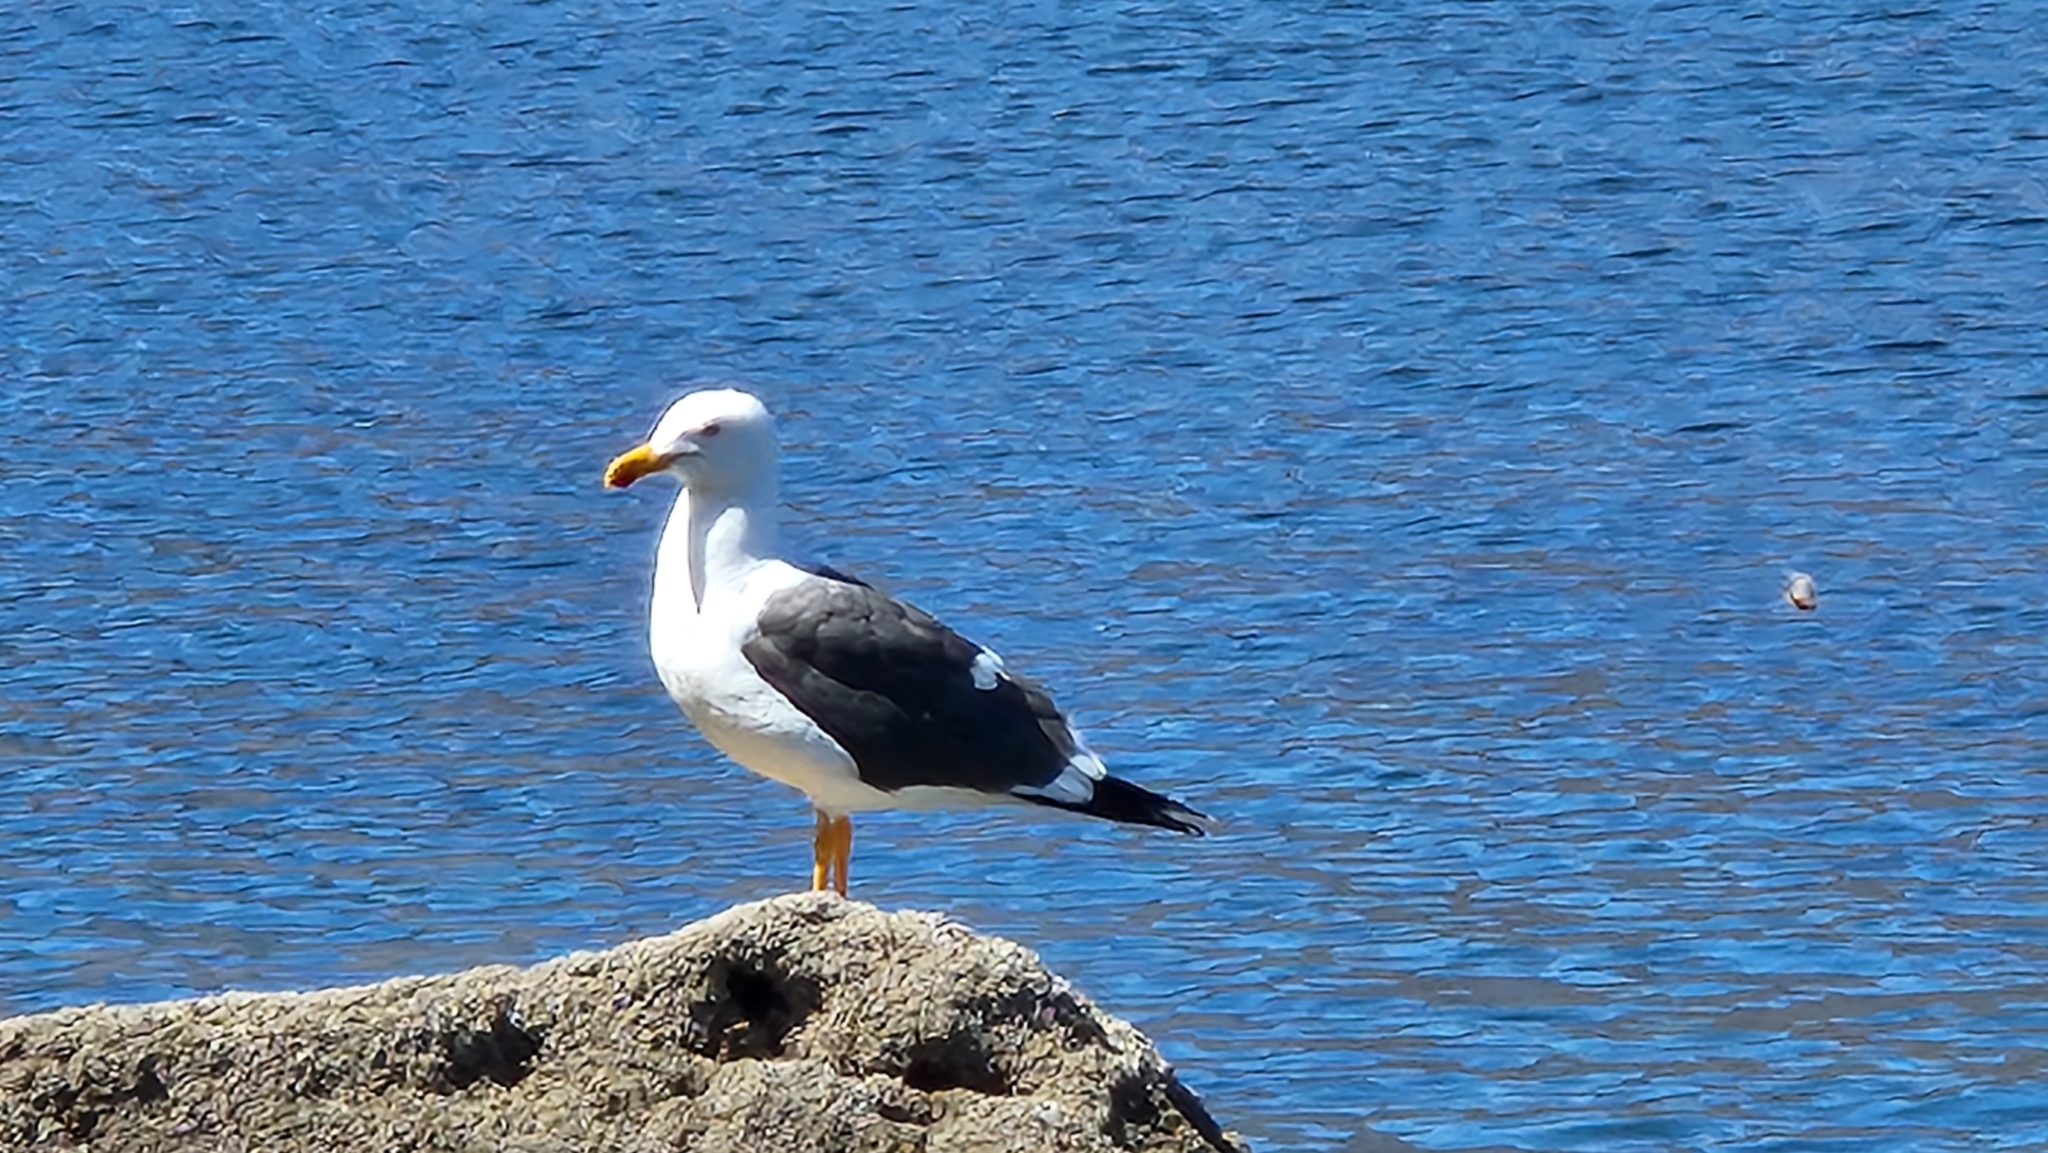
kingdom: Animalia
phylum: Chordata
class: Aves
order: Charadriiformes
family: Laridae
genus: Larus
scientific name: Larus livens
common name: Yellow-footed gull
